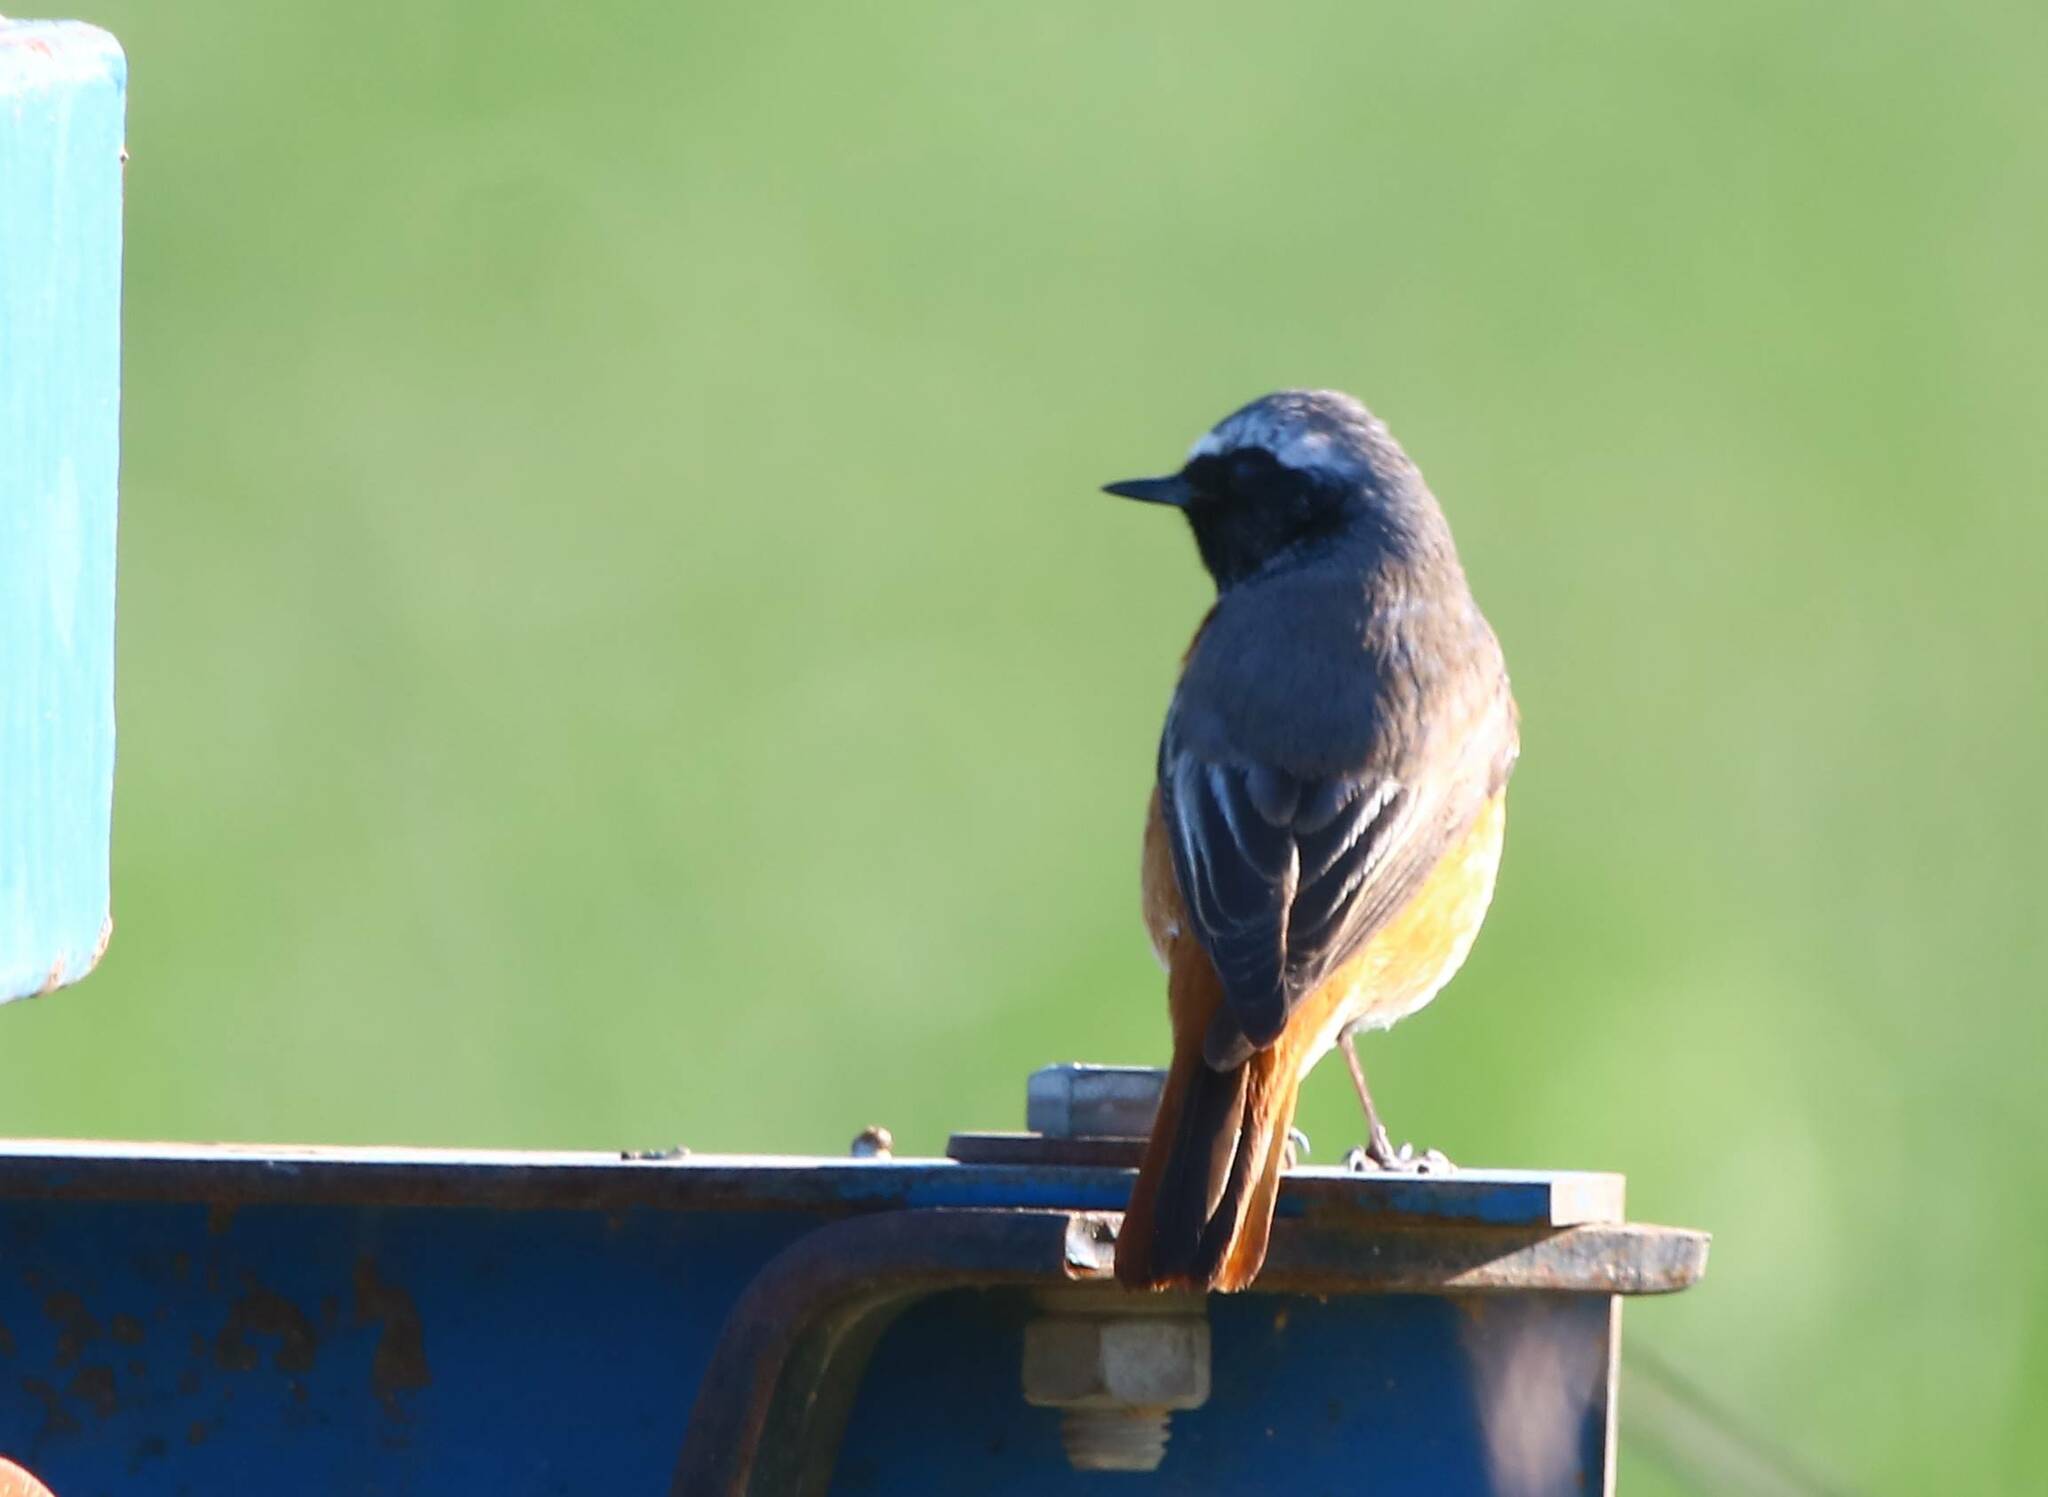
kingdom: Animalia
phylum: Chordata
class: Aves
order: Passeriformes
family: Muscicapidae
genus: Phoenicurus
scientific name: Phoenicurus phoenicurus
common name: Common redstart
